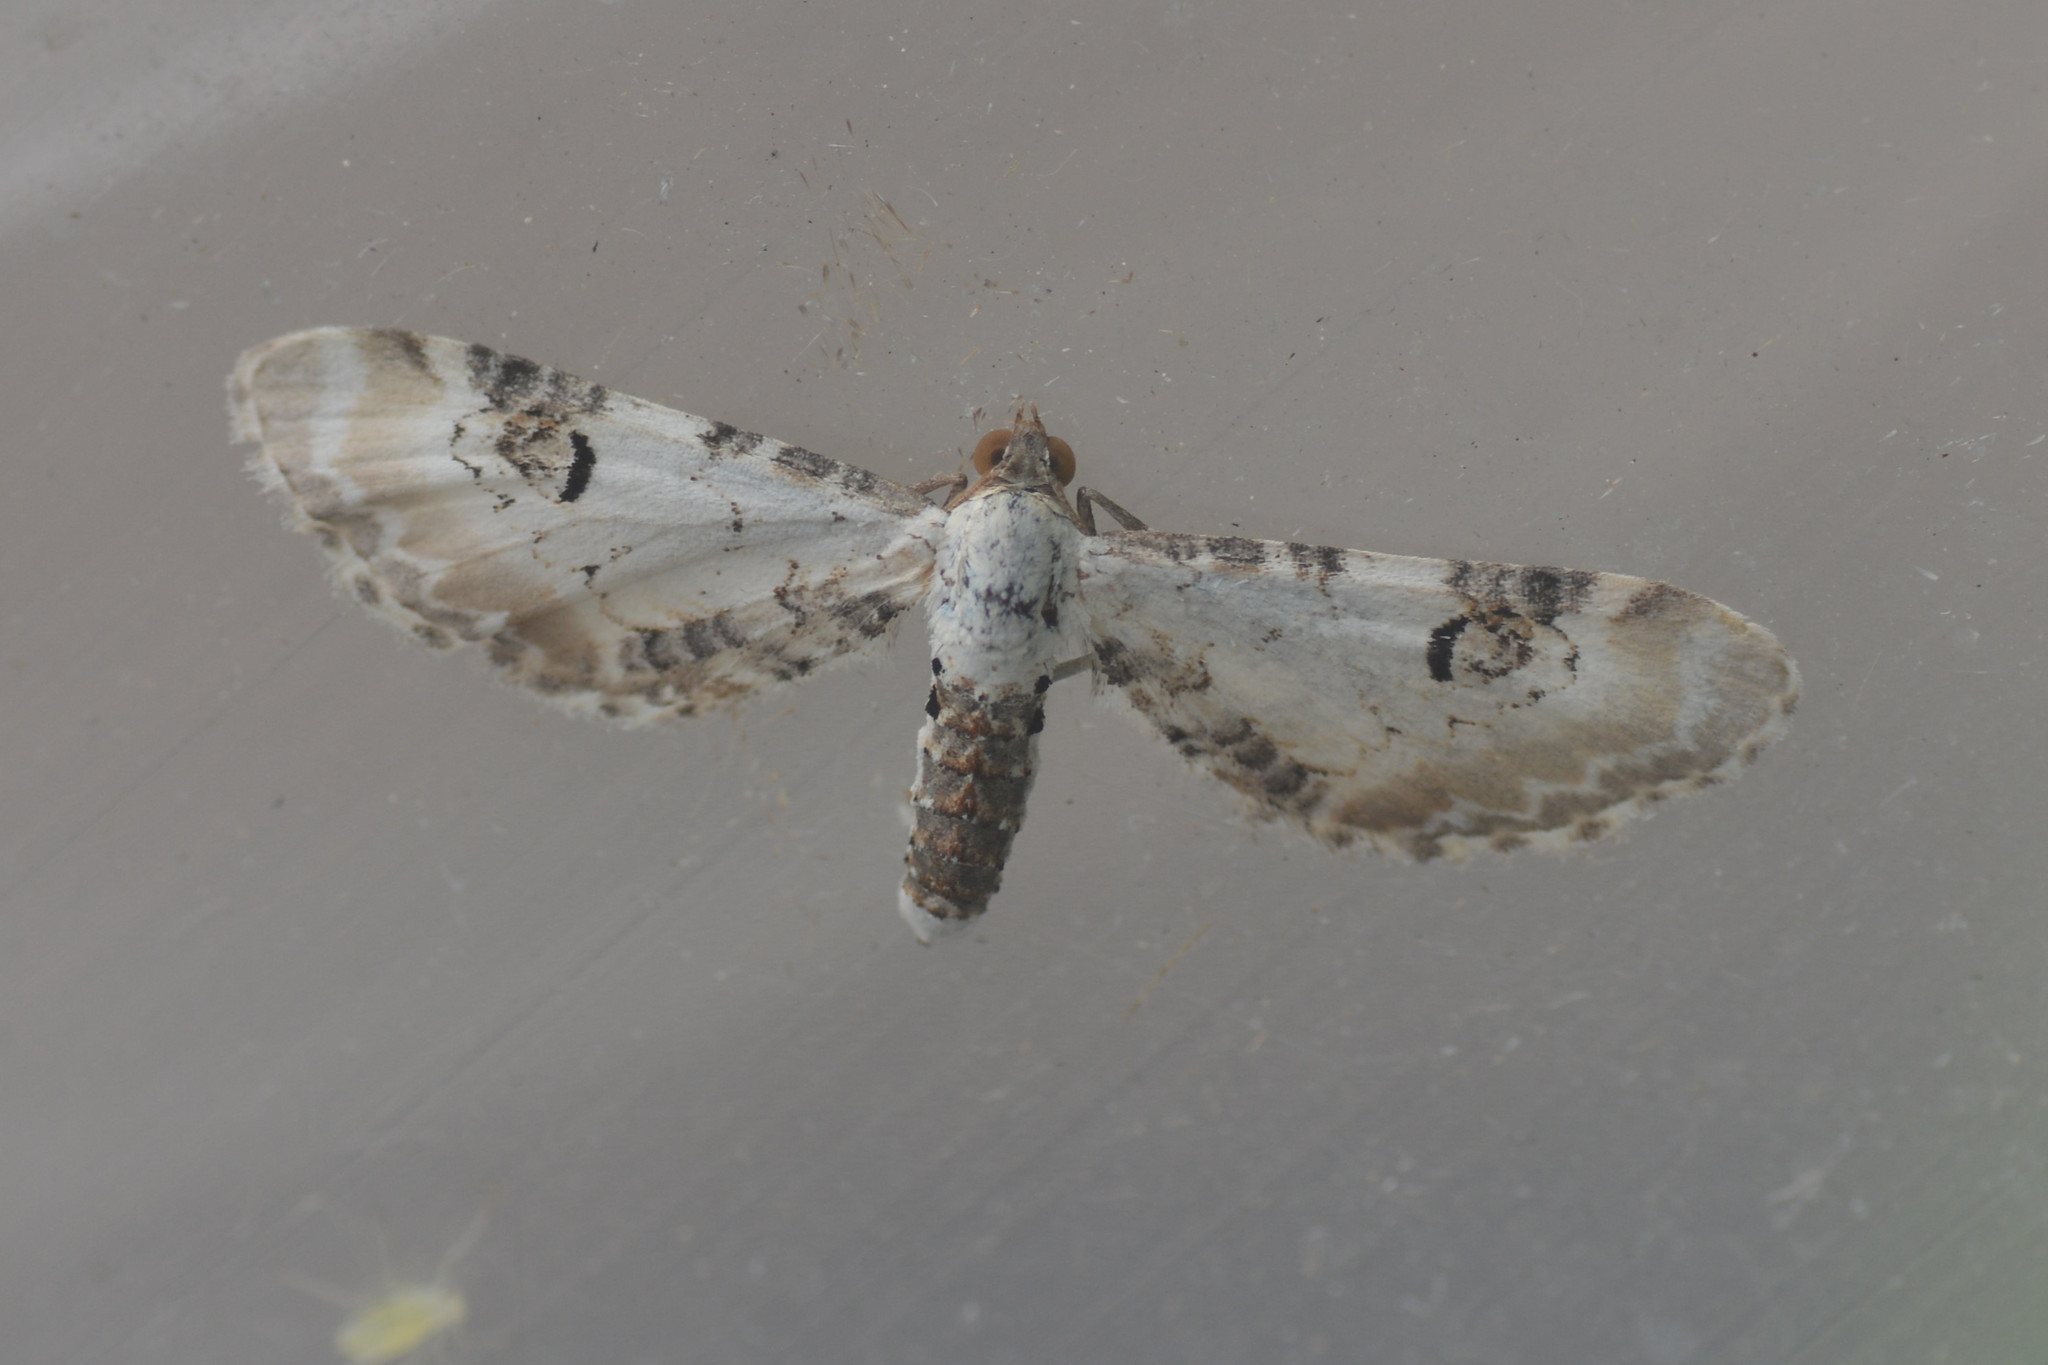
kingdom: Animalia
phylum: Arthropoda
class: Insecta
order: Lepidoptera
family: Geometridae
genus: Eupithecia
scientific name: Eupithecia centaureata
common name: Lime-speck pug
